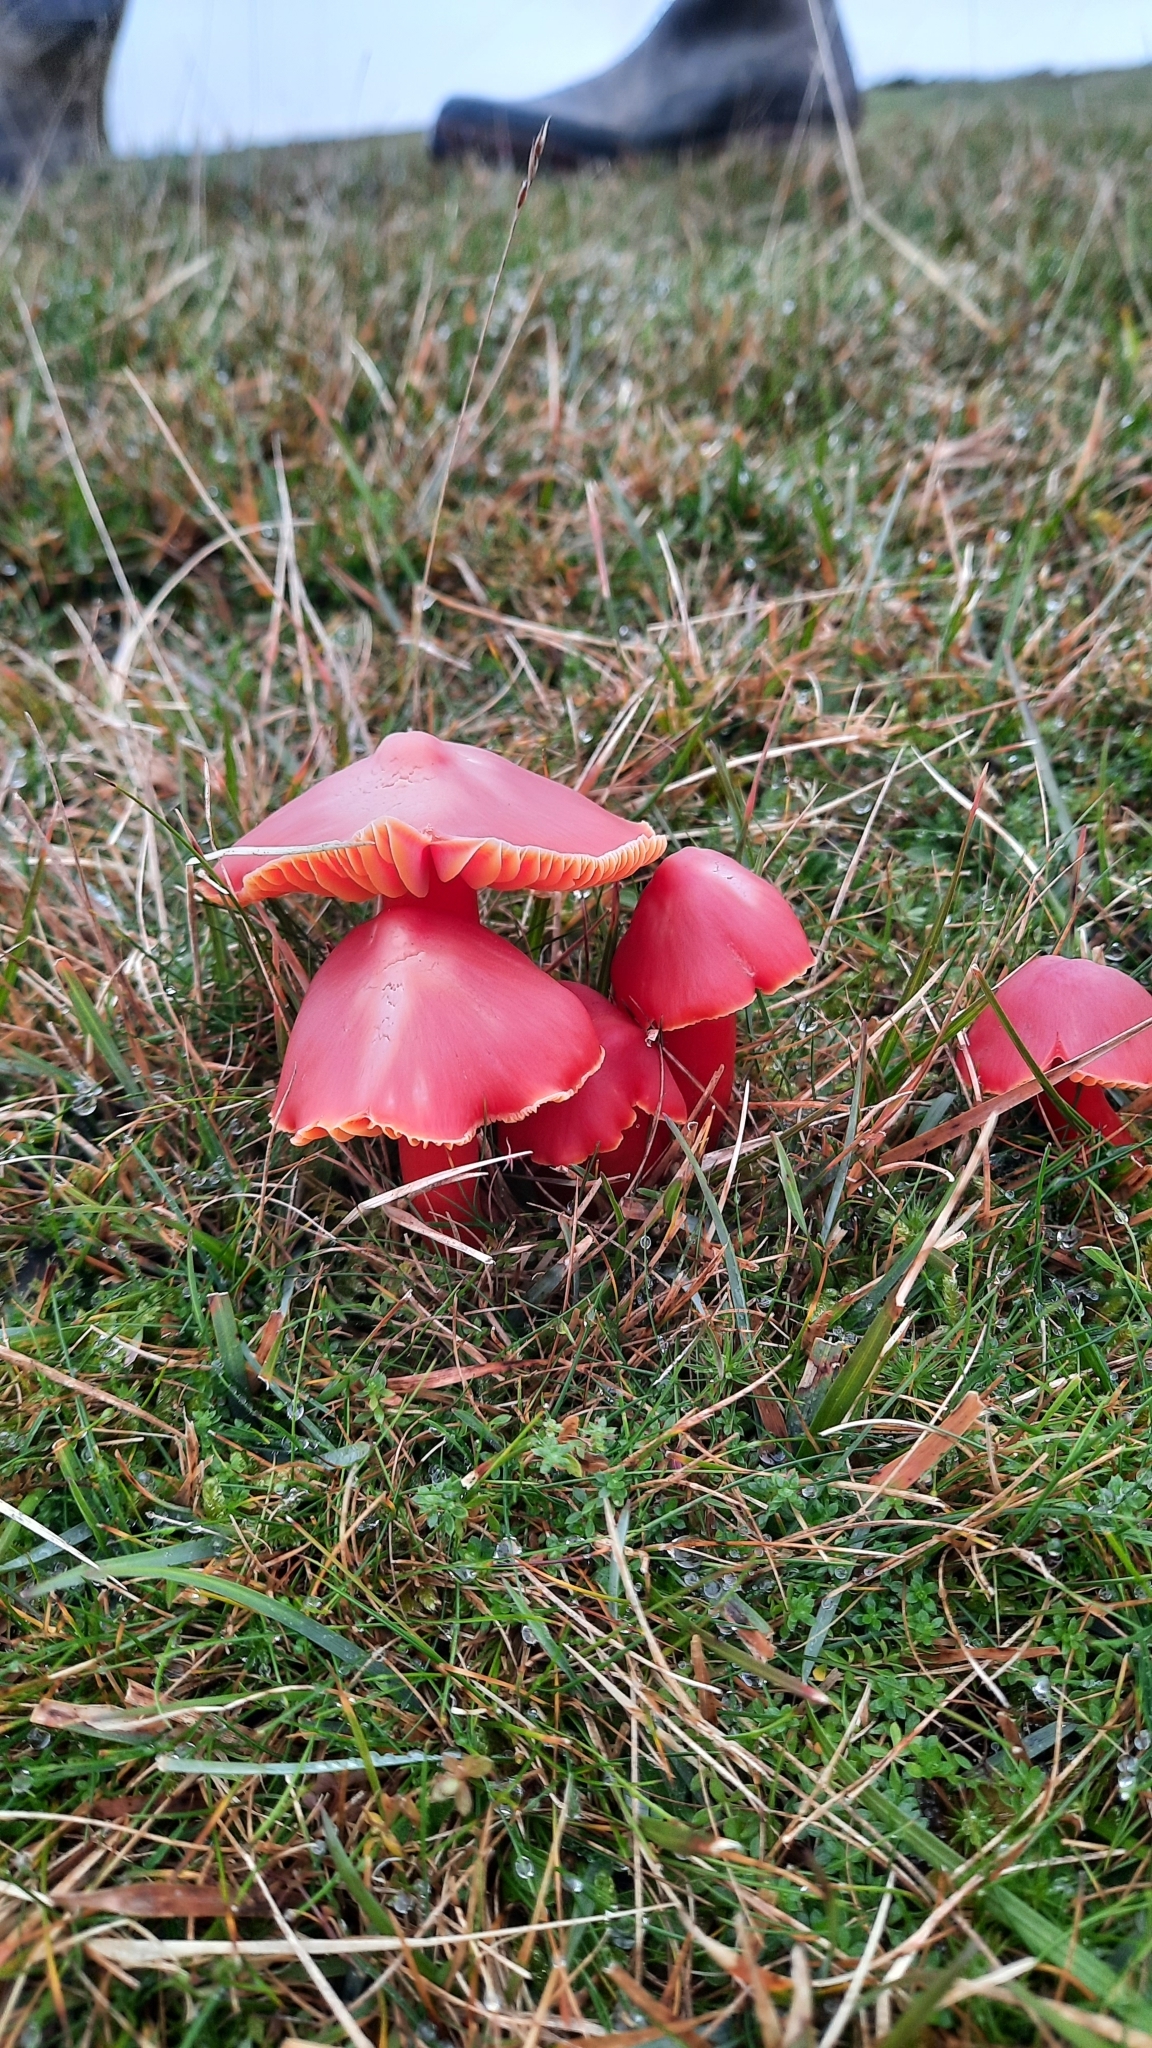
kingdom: Fungi
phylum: Basidiomycota
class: Agaricomycetes
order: Agaricales
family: Hygrophoraceae
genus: Hygrocybe
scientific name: Hygrocybe coccinea
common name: Scarlet hood
